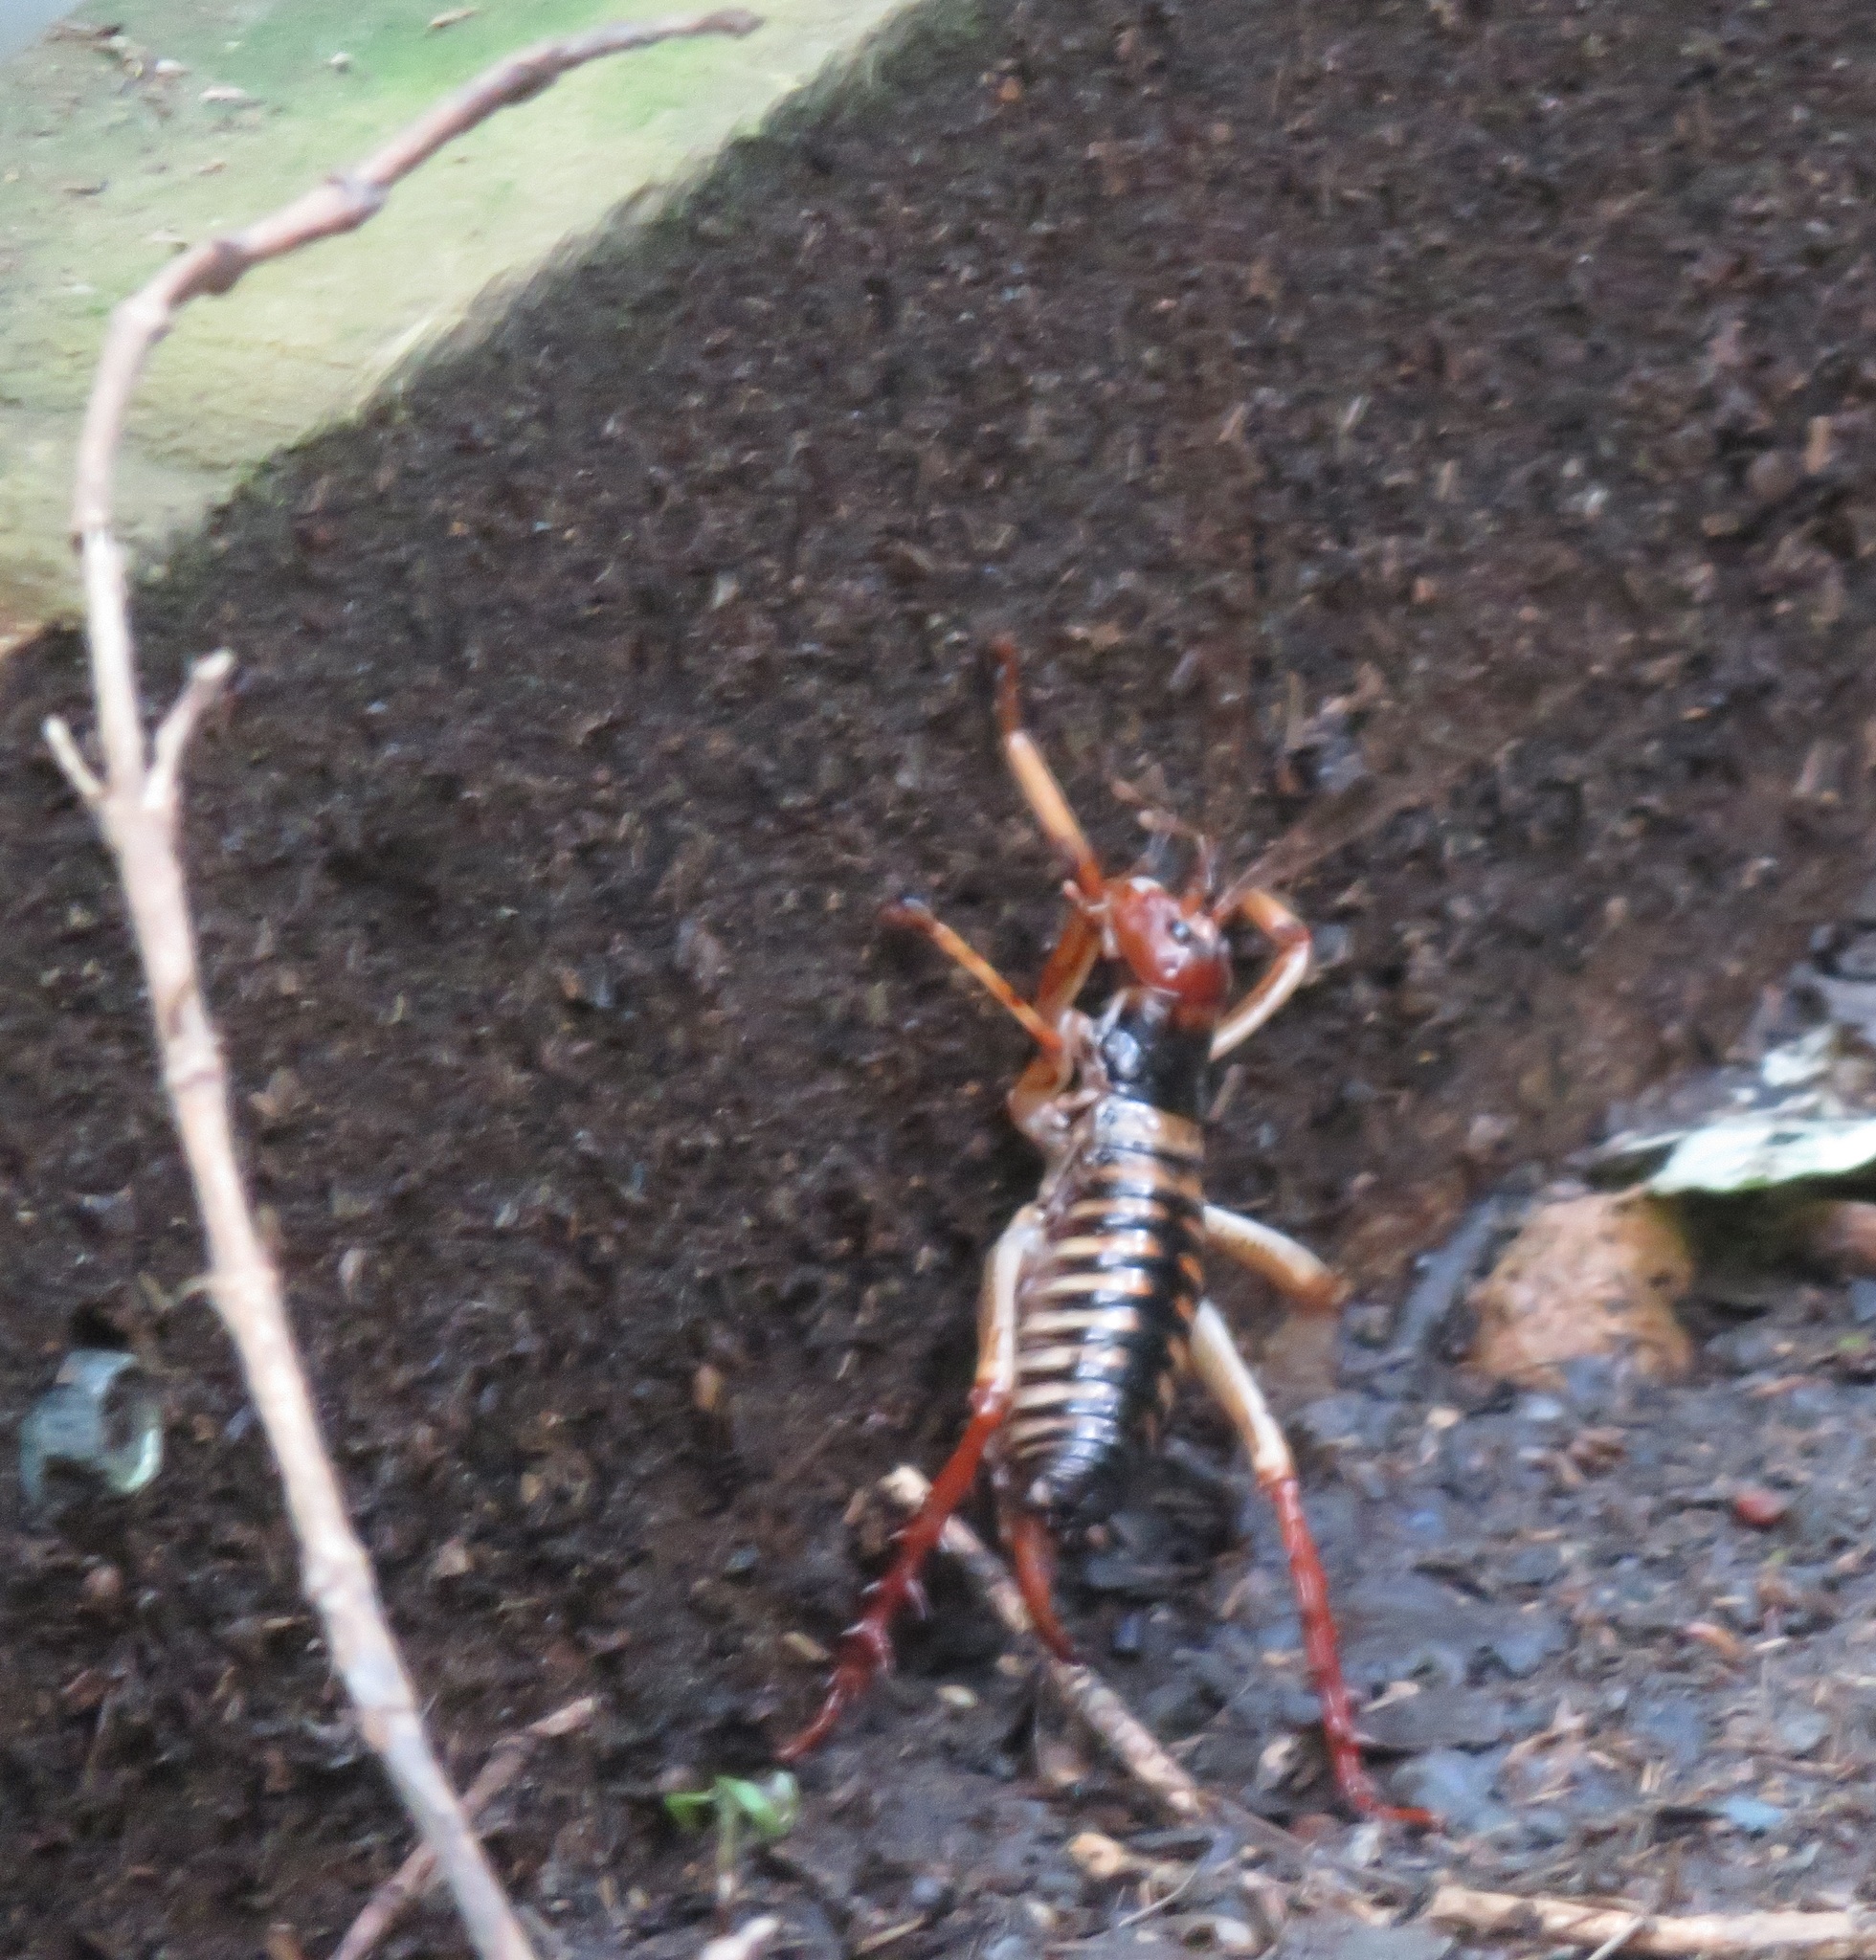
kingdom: Animalia
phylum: Arthropoda
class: Insecta
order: Orthoptera
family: Anostostomatidae
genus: Hemideina
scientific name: Hemideina crassidens
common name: Wellington tree weta
